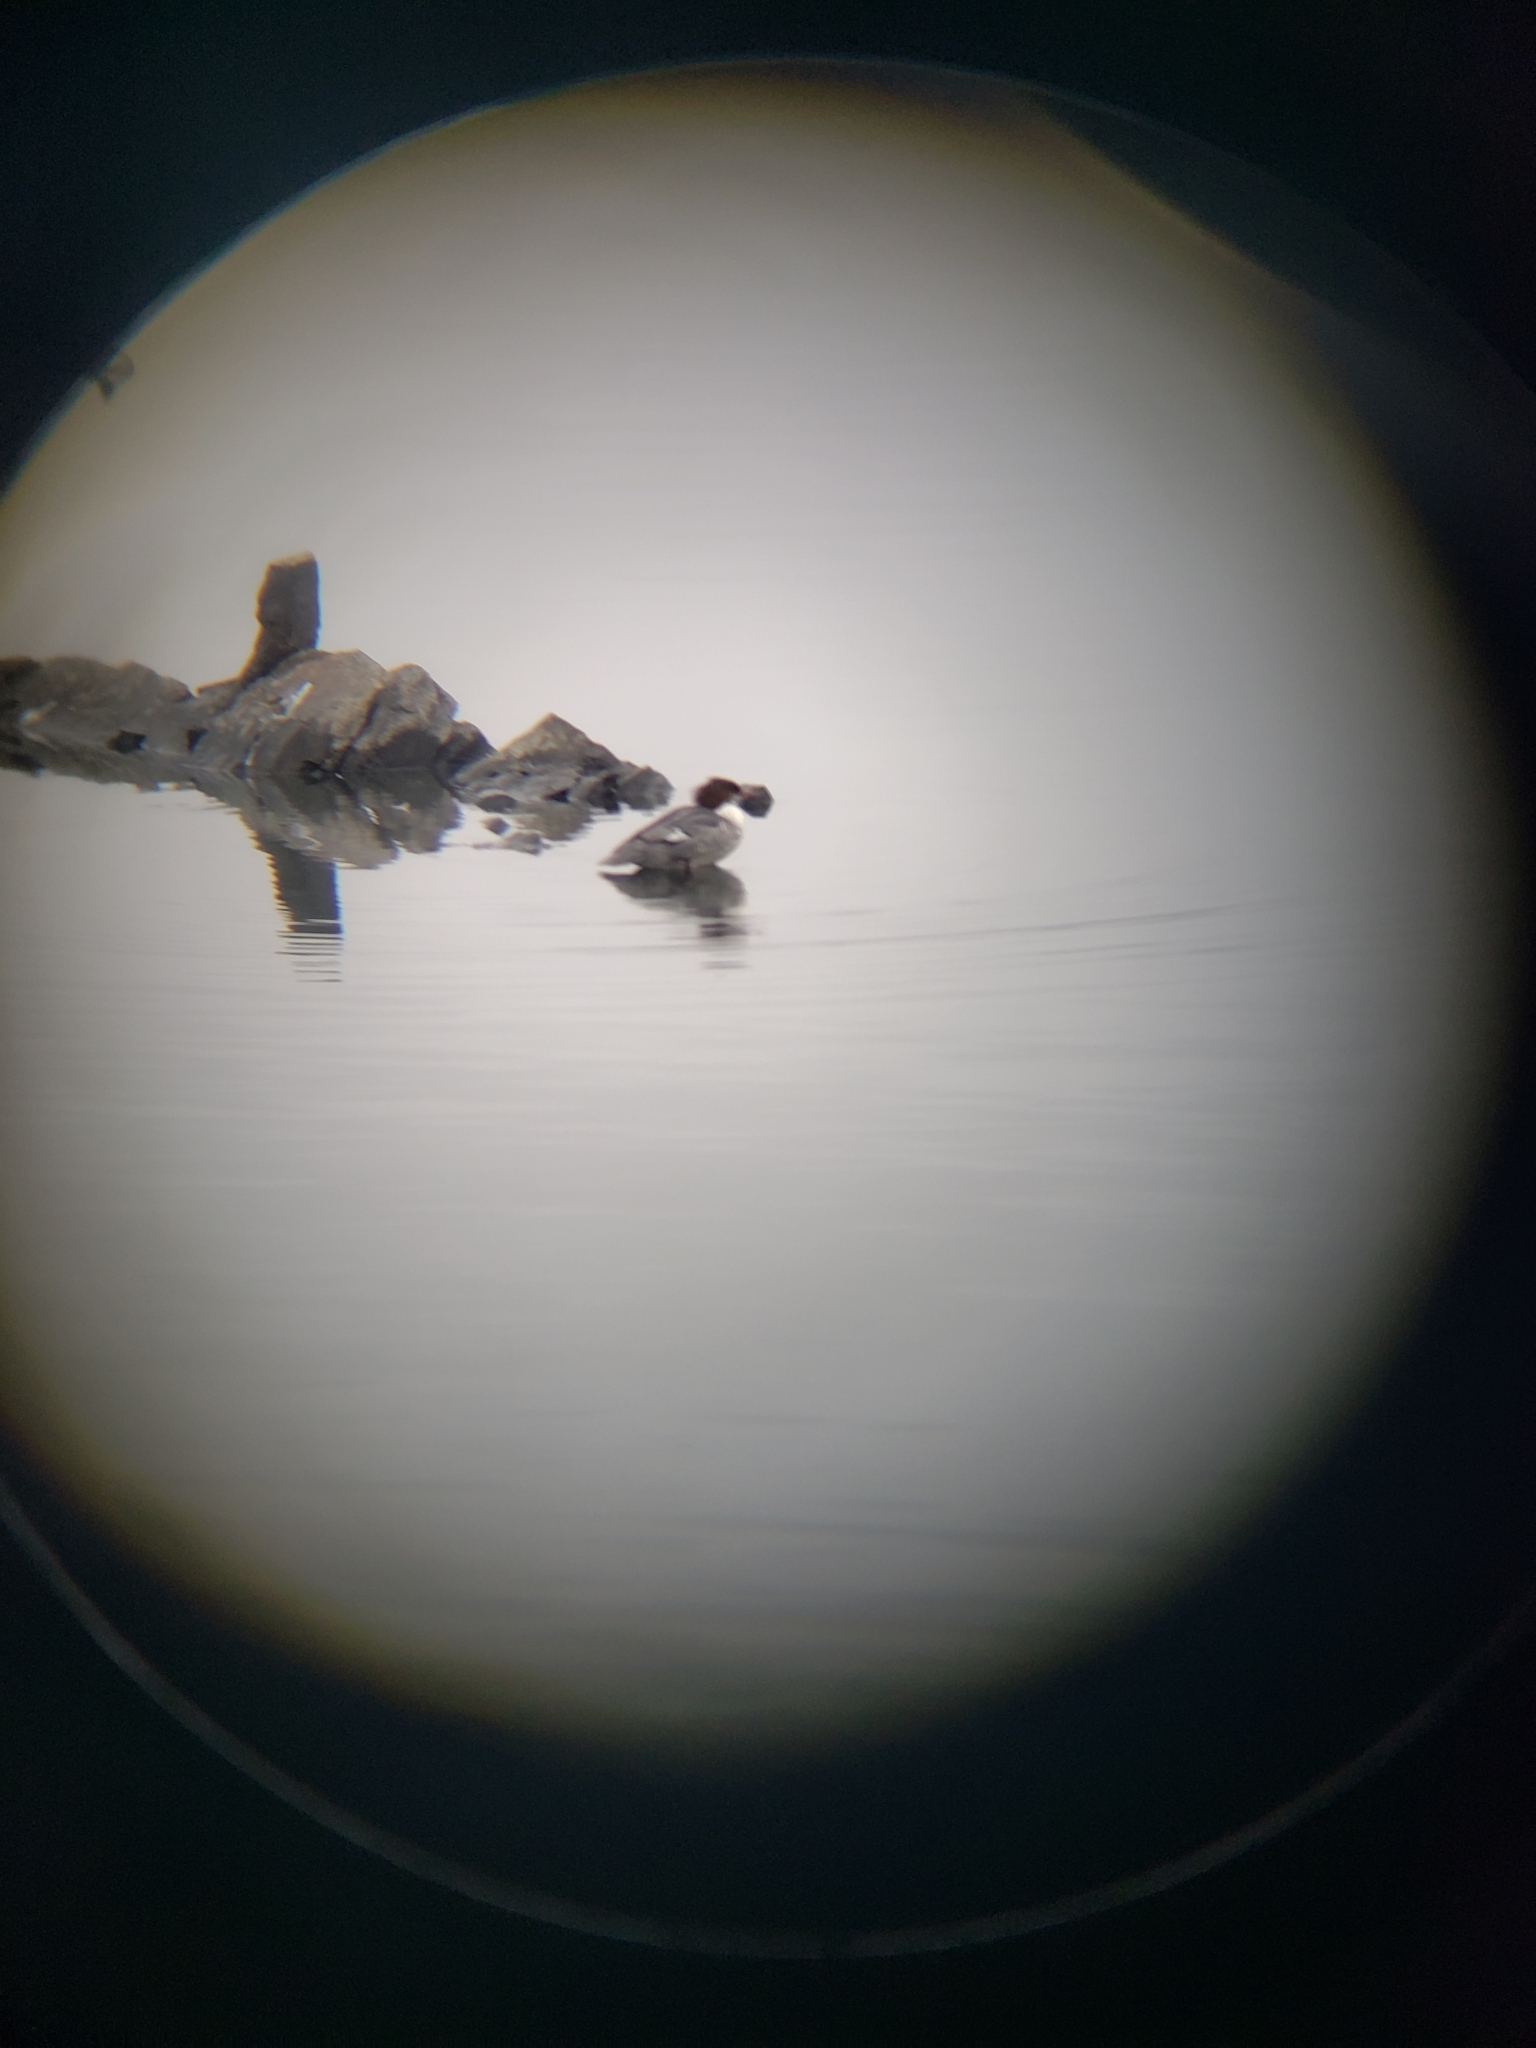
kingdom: Animalia
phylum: Chordata
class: Aves
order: Anseriformes
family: Anatidae
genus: Mergus
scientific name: Mergus merganser
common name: Common merganser
